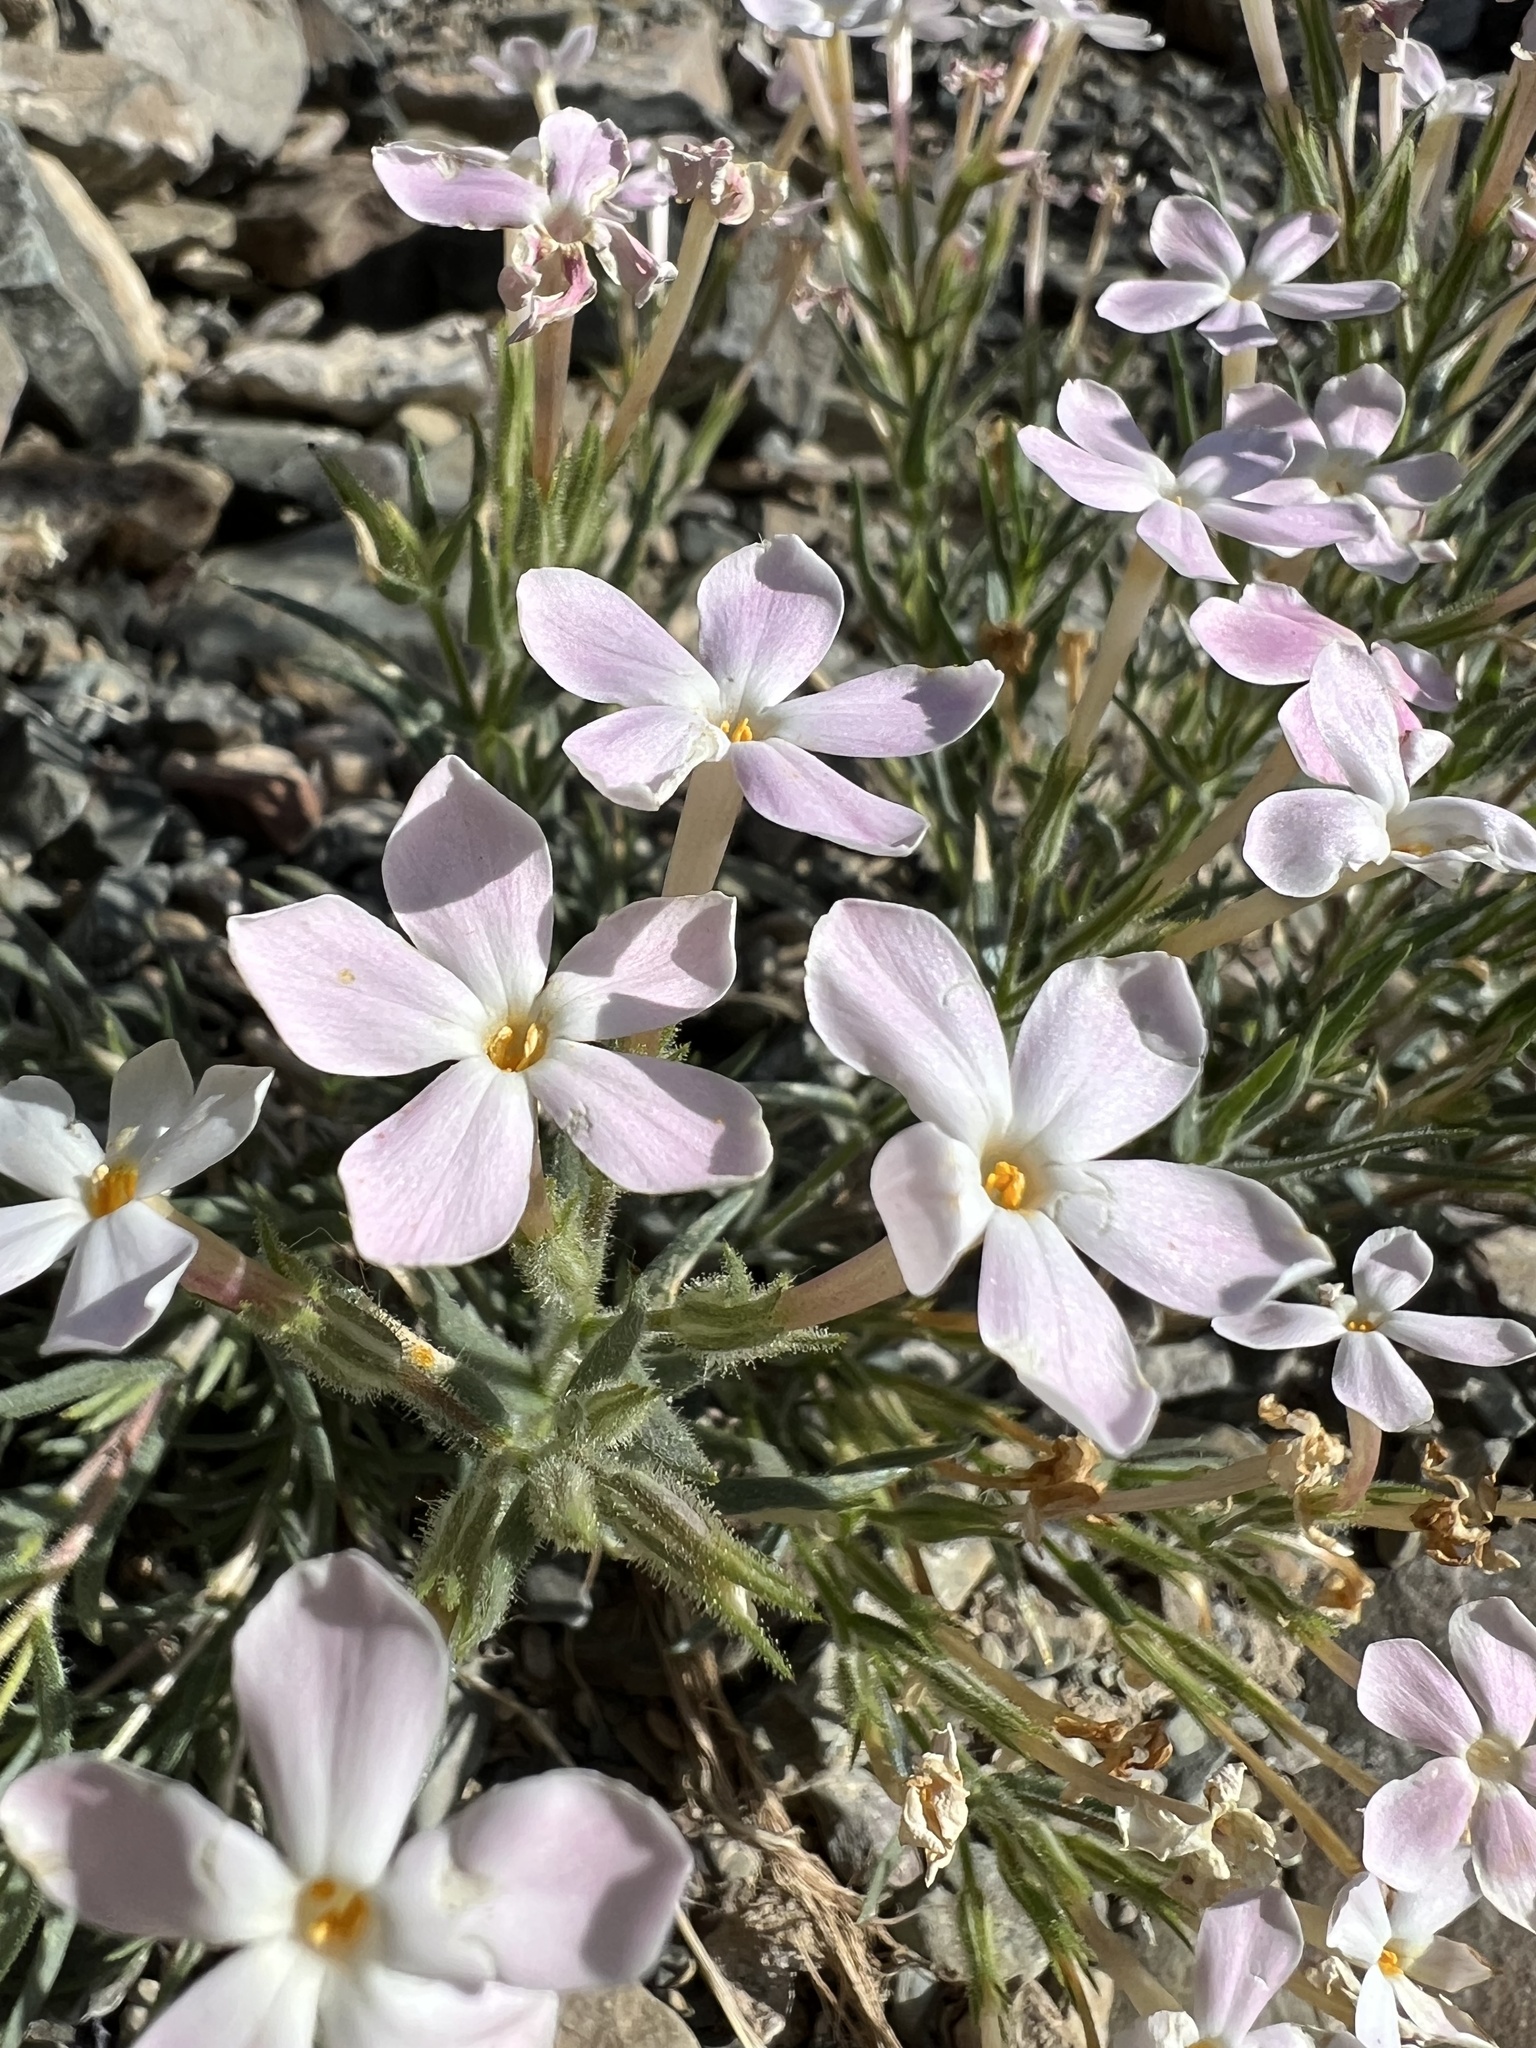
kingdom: Plantae
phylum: Tracheophyta
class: Magnoliopsida
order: Ericales
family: Polemoniaceae
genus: Phlox
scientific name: Phlox longifolia
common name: Longleaf phlox
